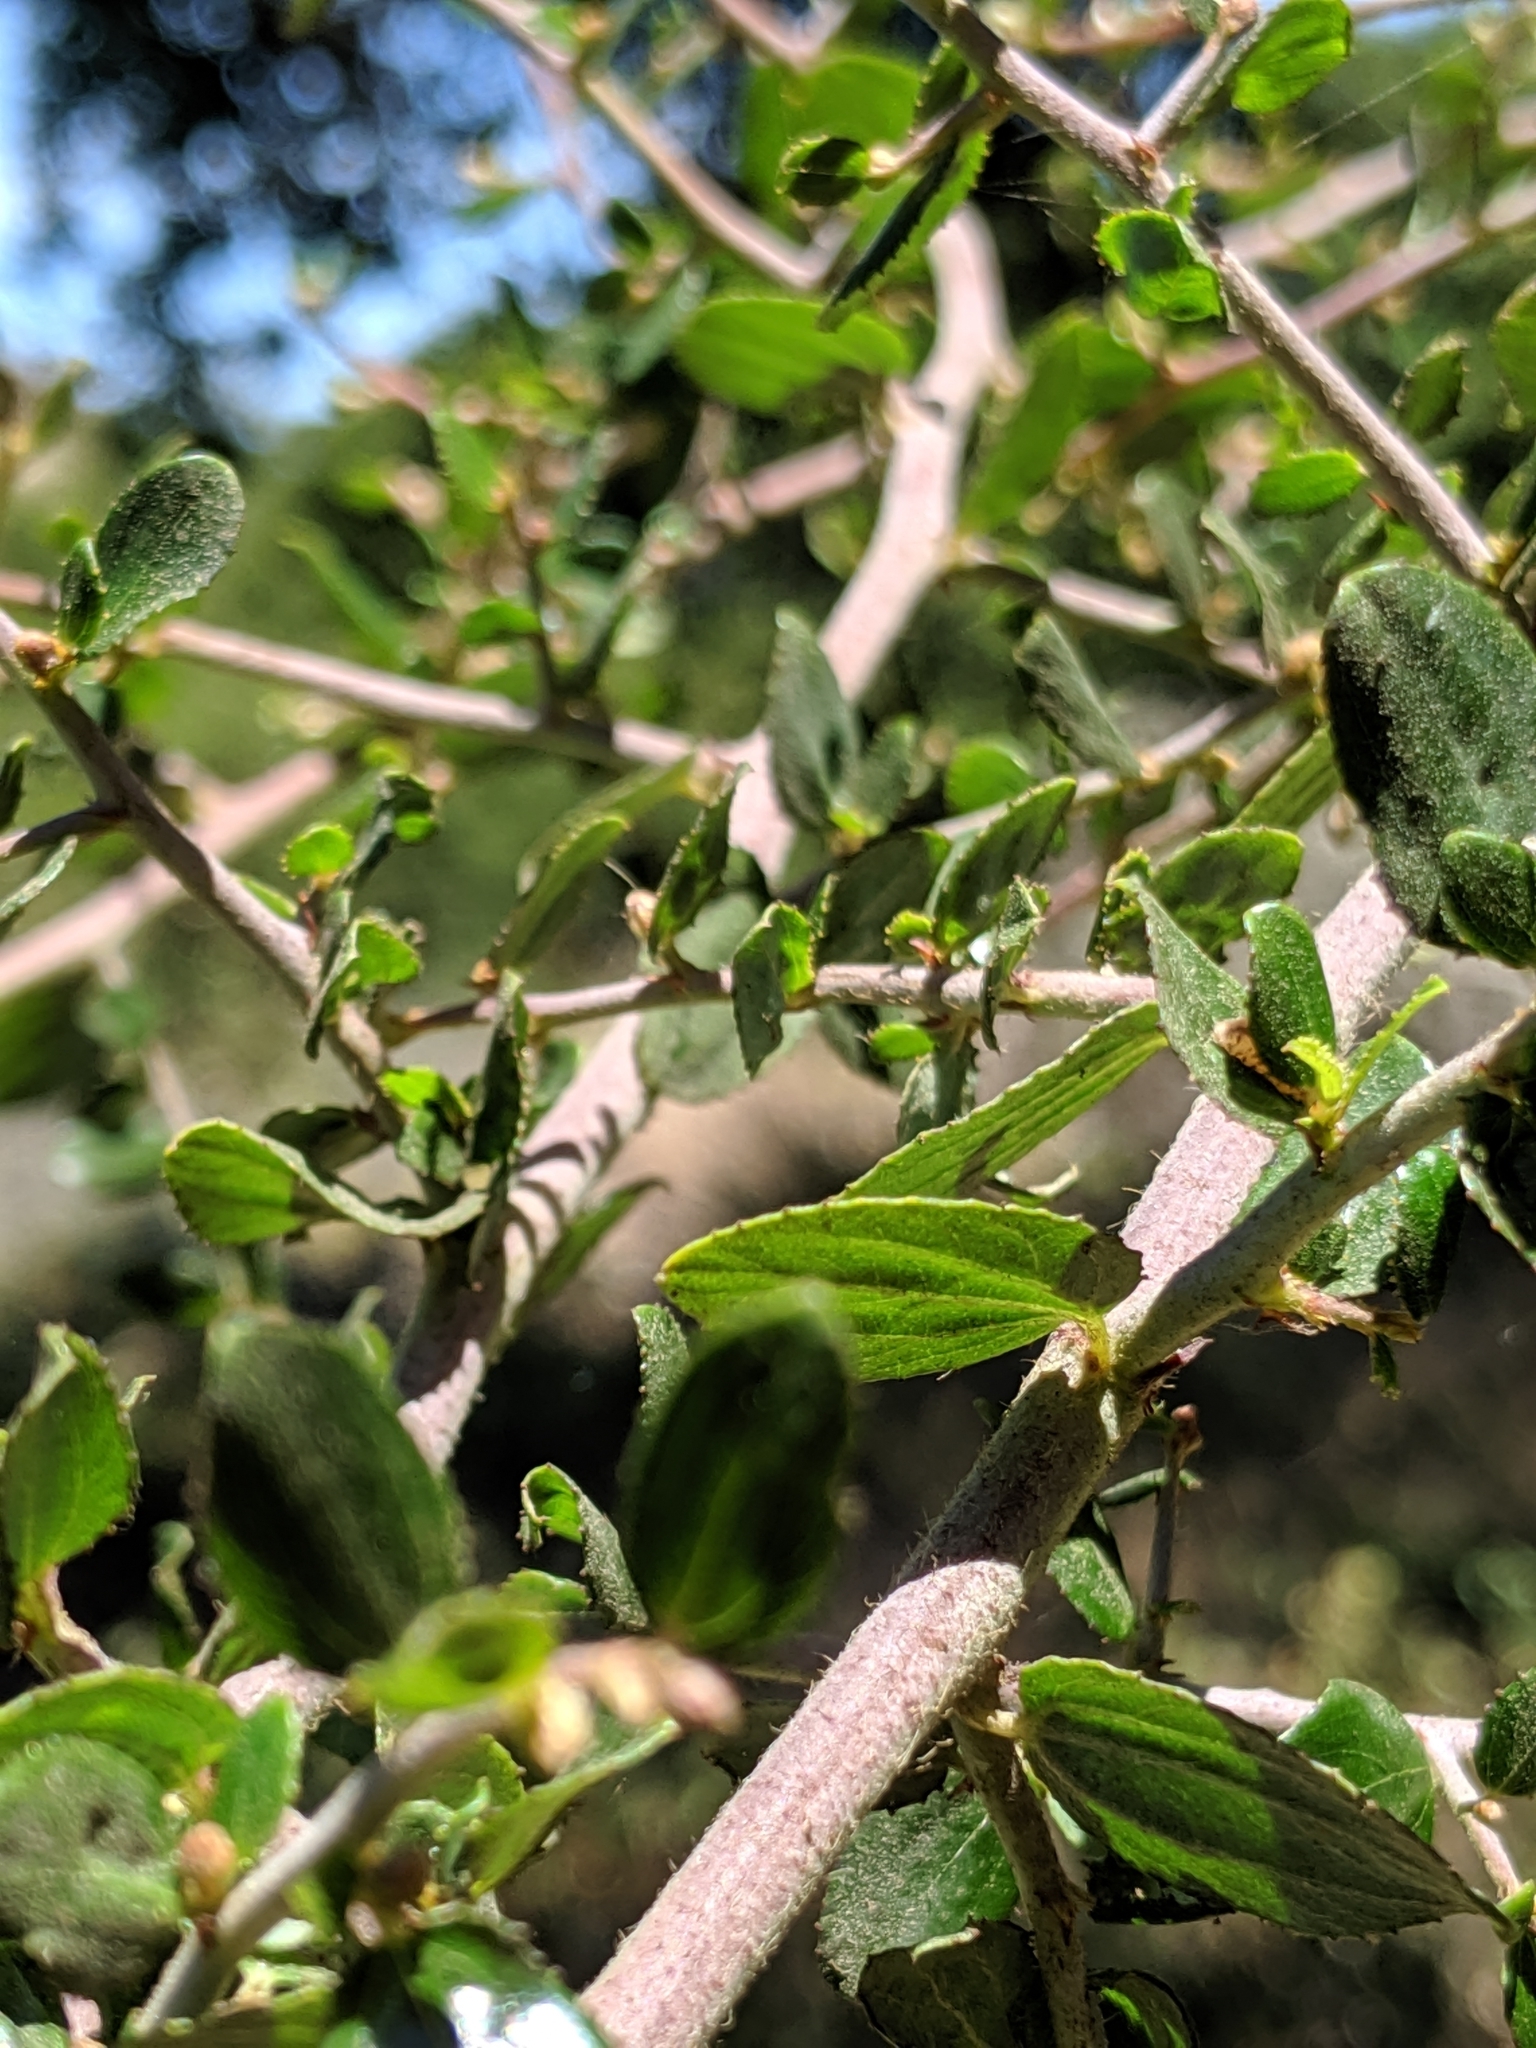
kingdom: Plantae
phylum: Tracheophyta
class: Magnoliopsida
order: Rosales
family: Rhamnaceae
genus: Ceanothus
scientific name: Ceanothus oliganthus
